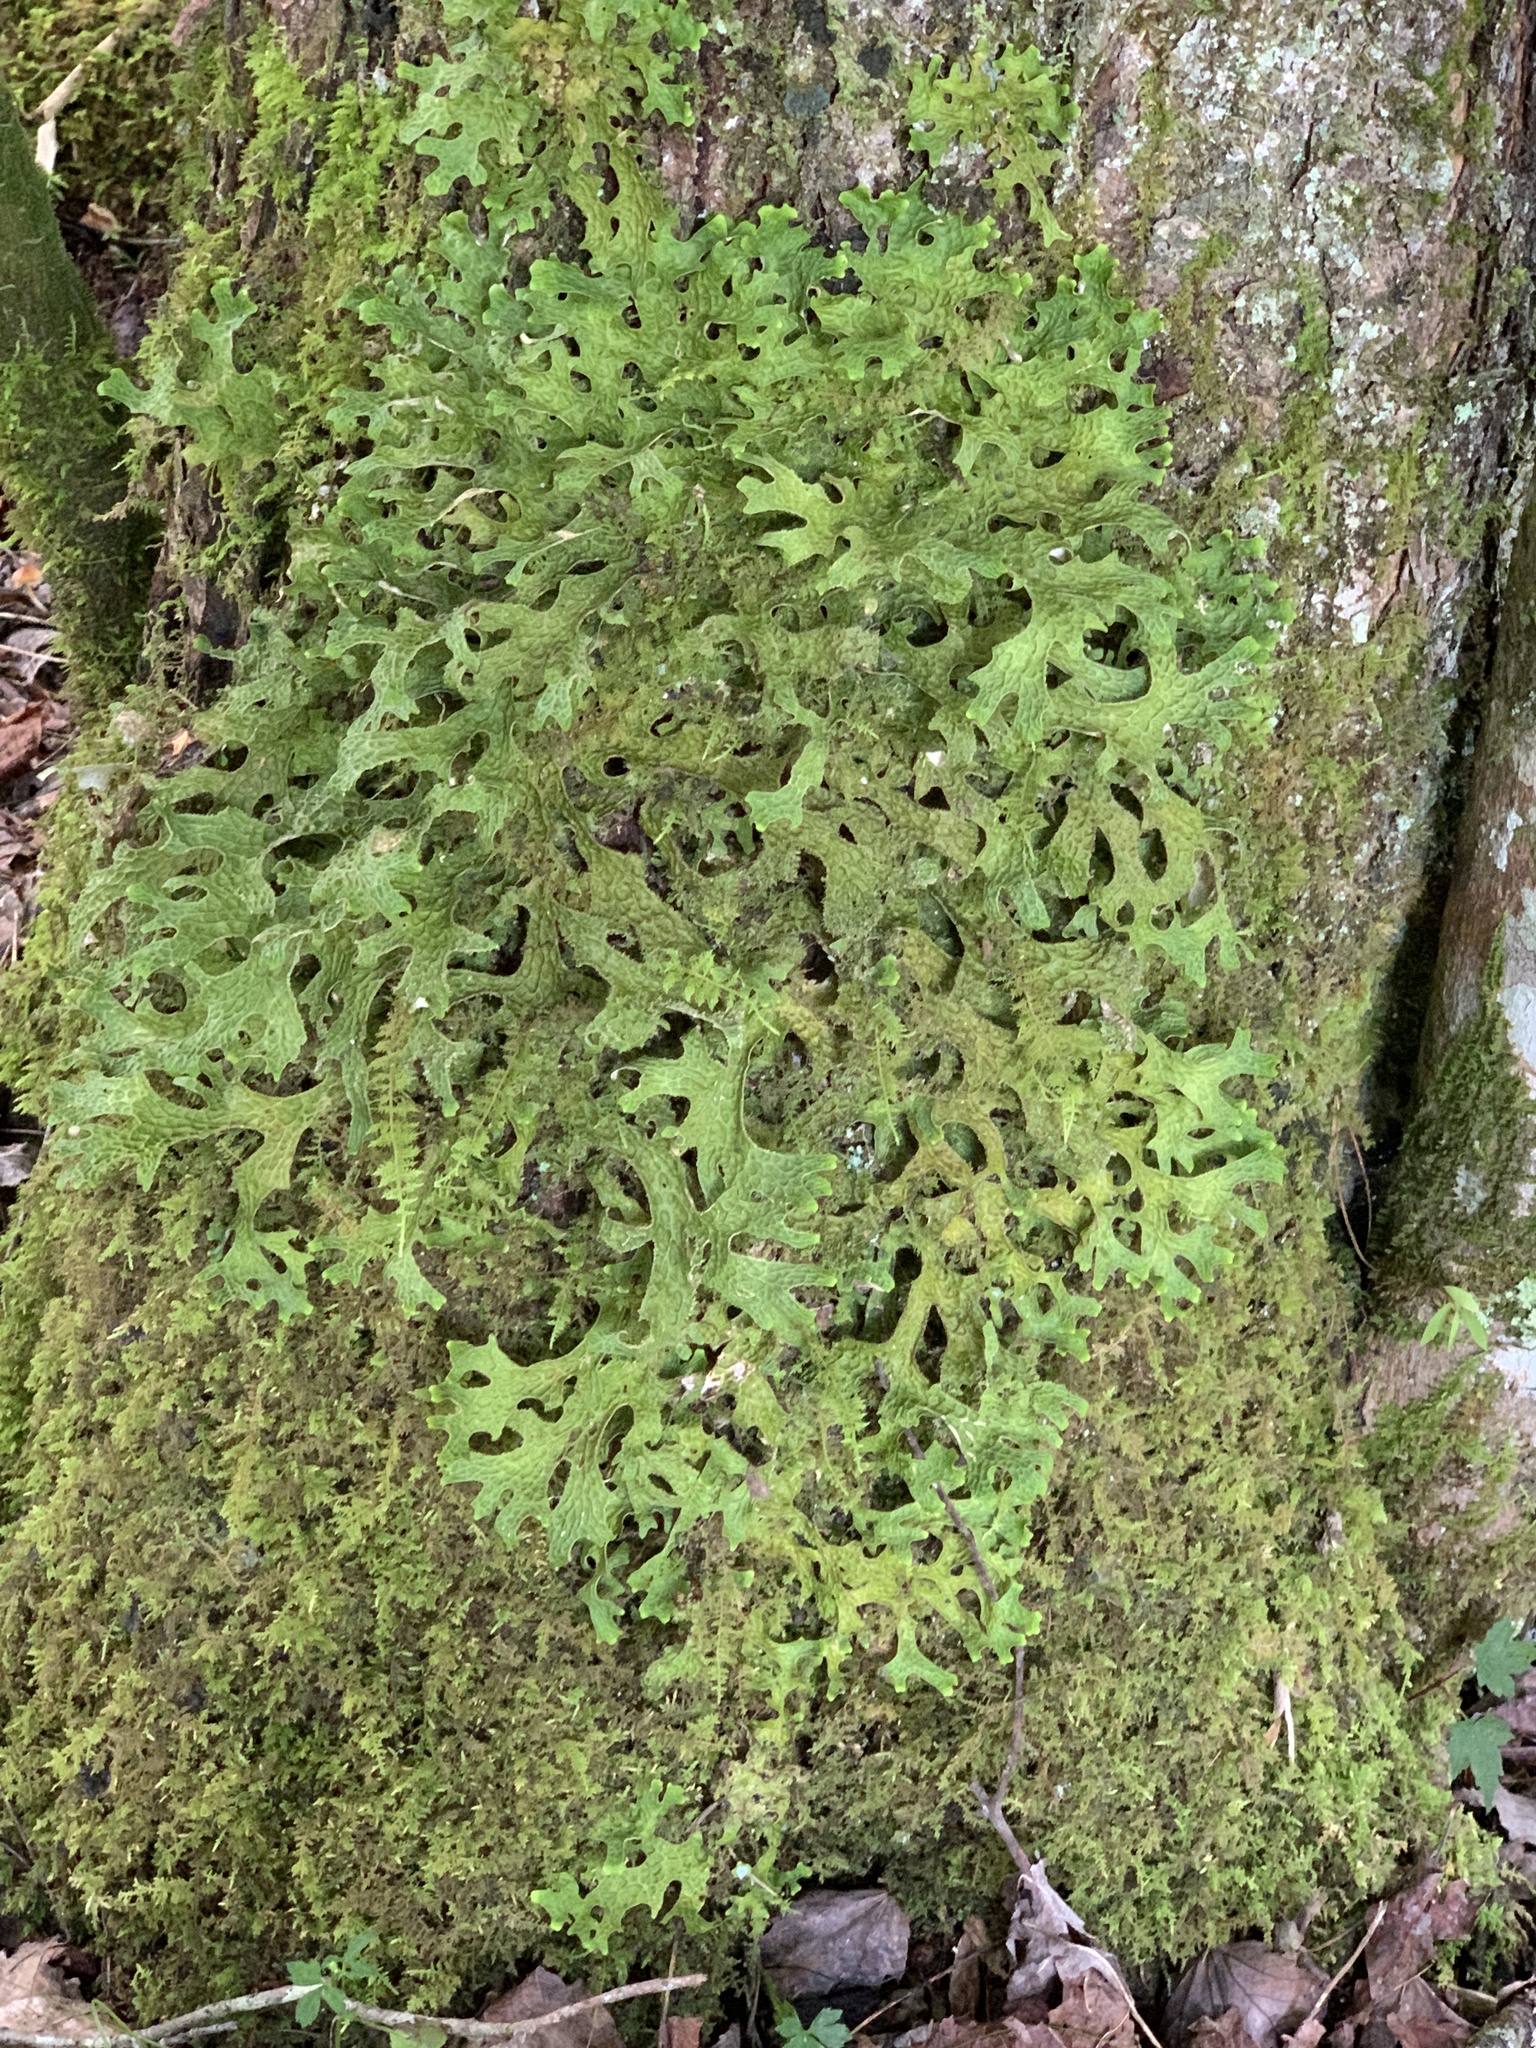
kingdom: Fungi
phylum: Ascomycota
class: Lecanoromycetes
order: Peltigerales
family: Lobariaceae
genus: Lobaria
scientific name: Lobaria pulmonaria
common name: Lungwort
